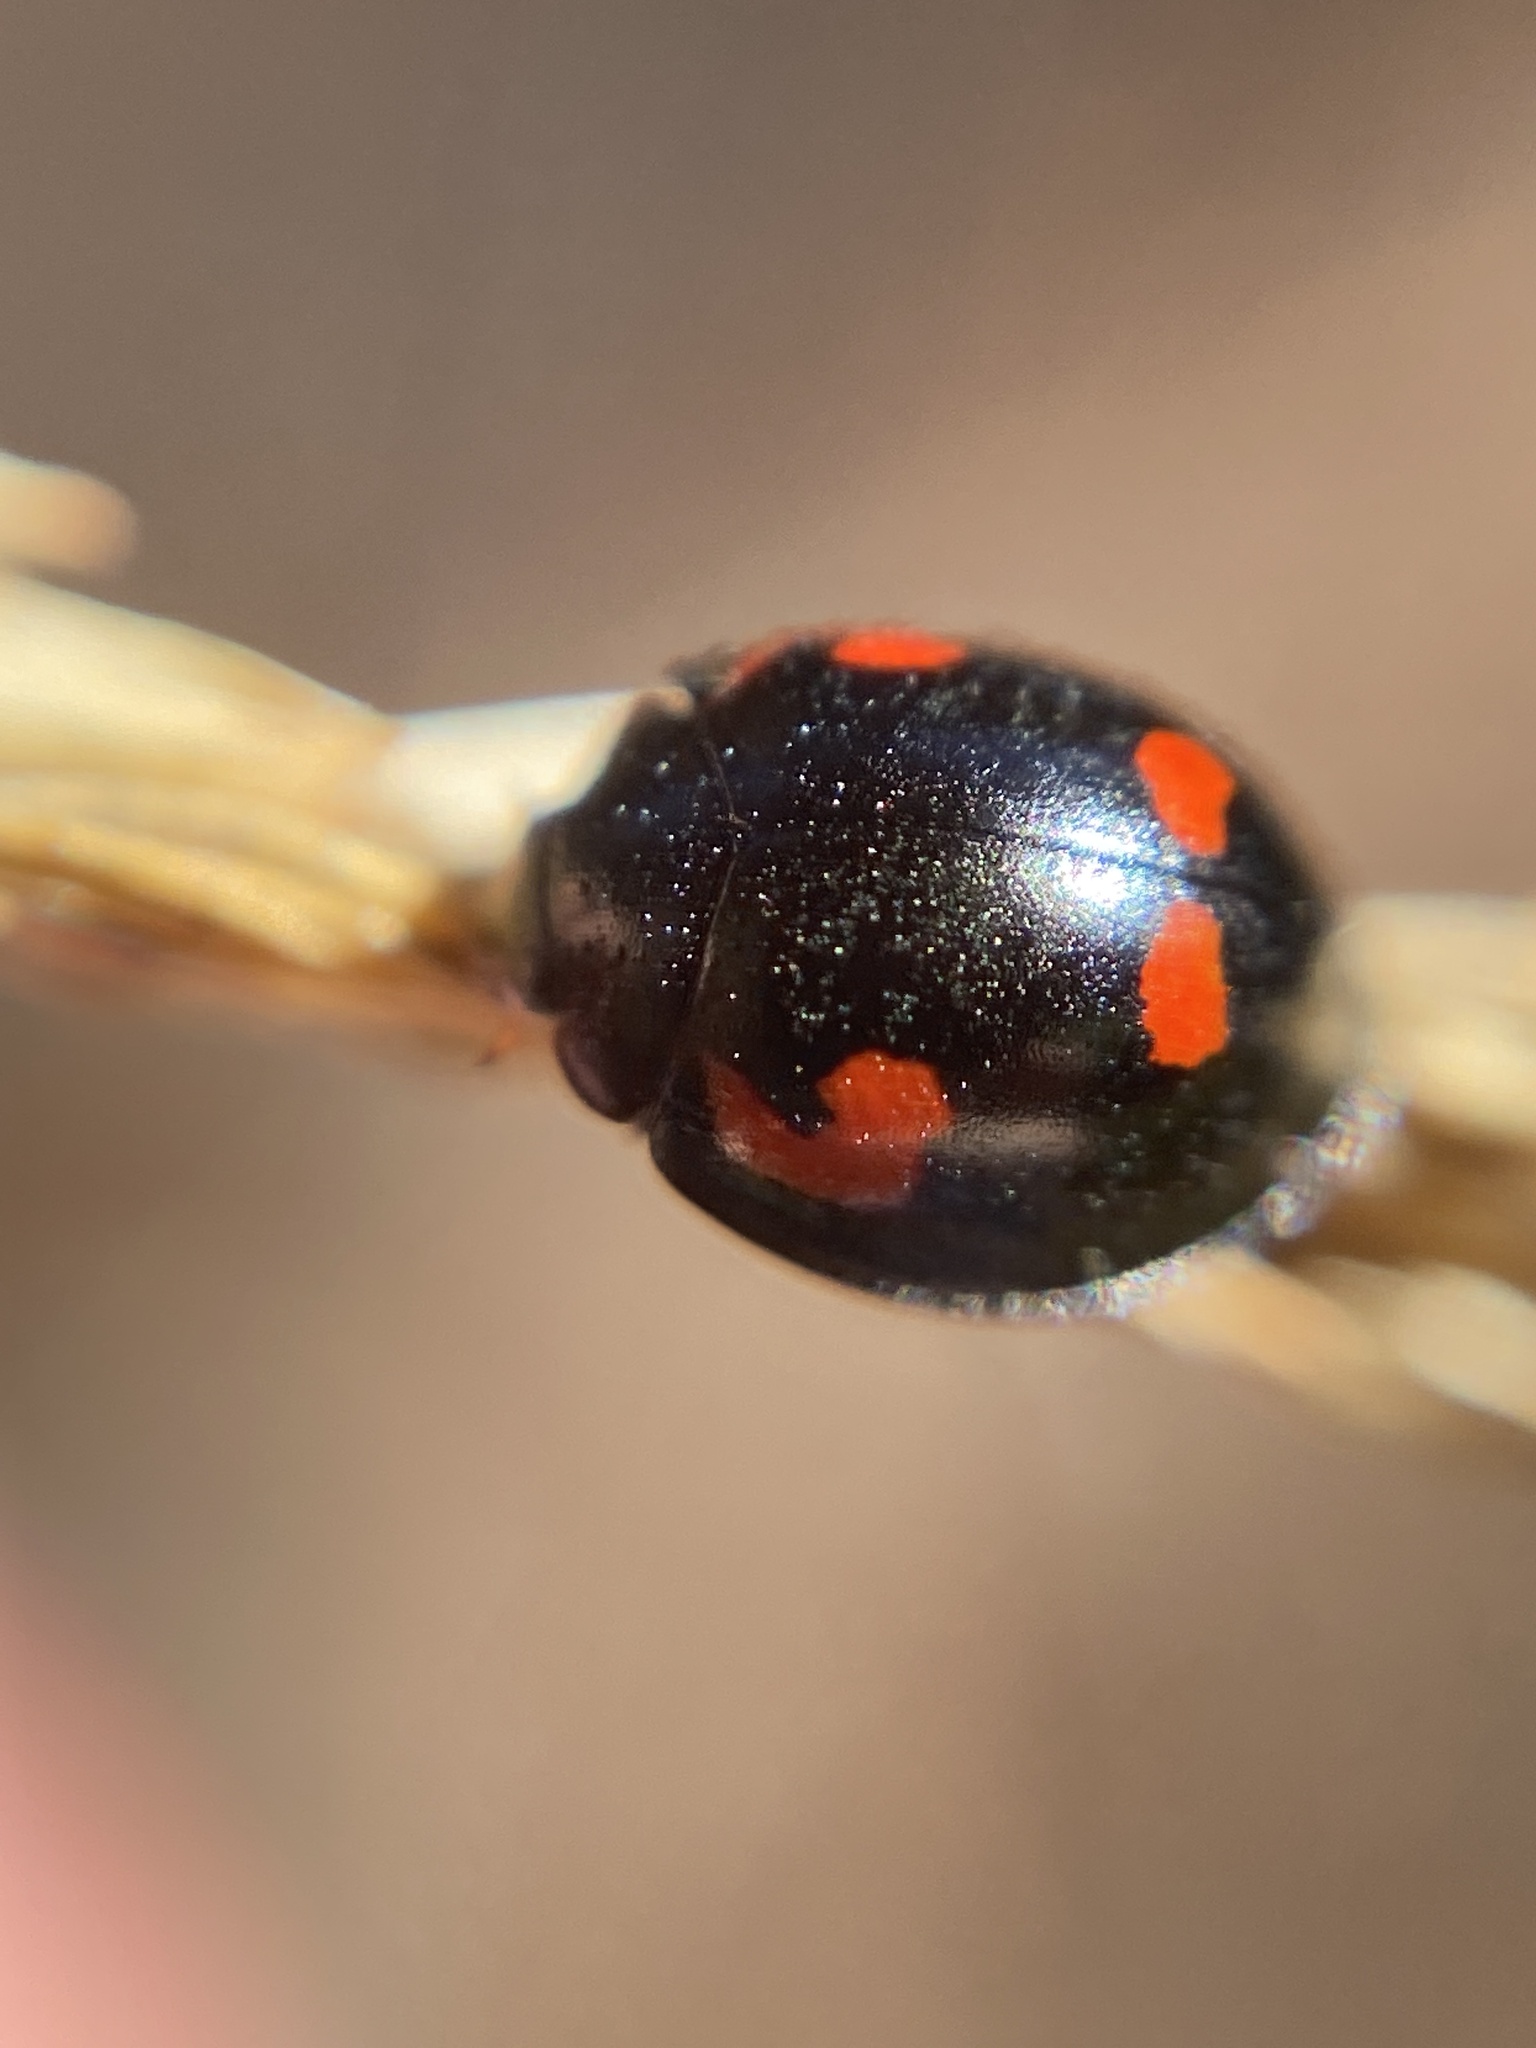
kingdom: Animalia
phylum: Arthropoda
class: Insecta
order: Coleoptera
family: Coccinellidae
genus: Brumus
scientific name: Brumus quadripustulatus
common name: Ladybird beetle
